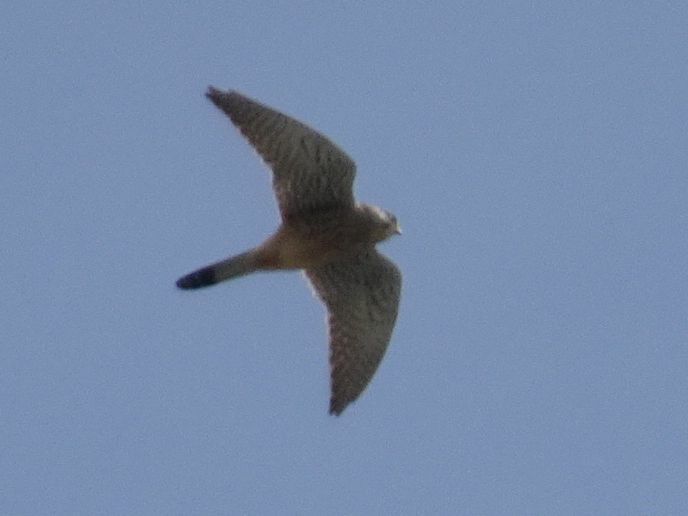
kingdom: Animalia
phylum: Chordata
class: Aves
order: Falconiformes
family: Falconidae
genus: Falco
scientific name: Falco tinnunculus
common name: Common kestrel
